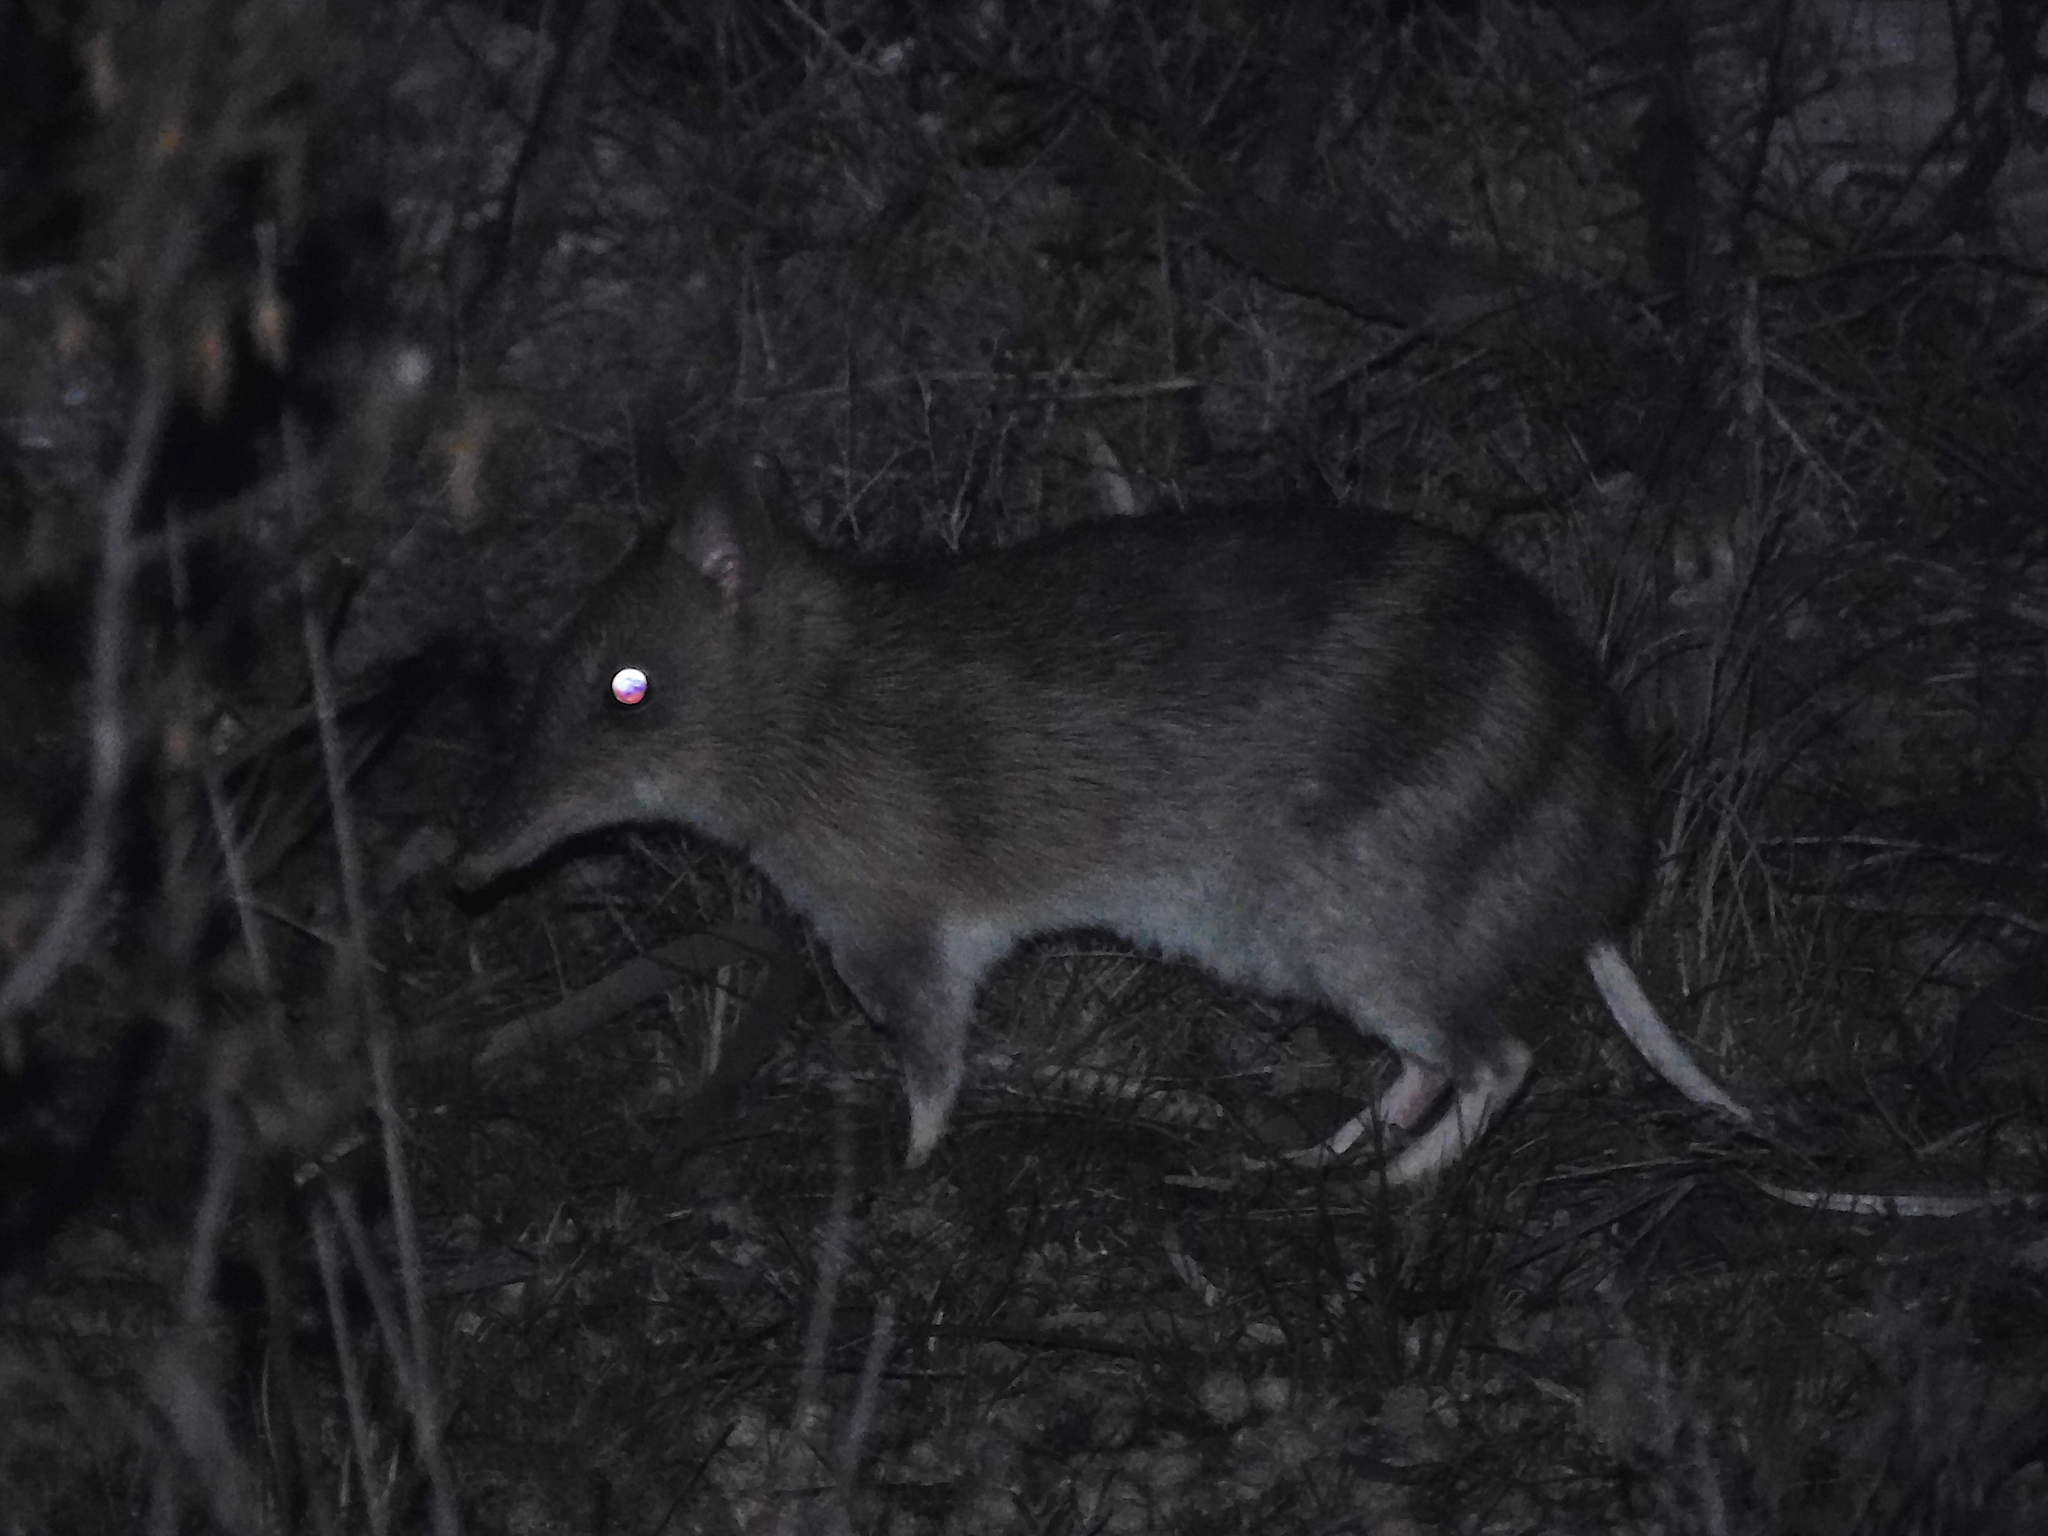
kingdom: Animalia
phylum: Chordata
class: Mammalia
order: Peramelemorphia
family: Peramelidae
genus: Perameles
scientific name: Perameles gunnii
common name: Eastern barred bandicoot
